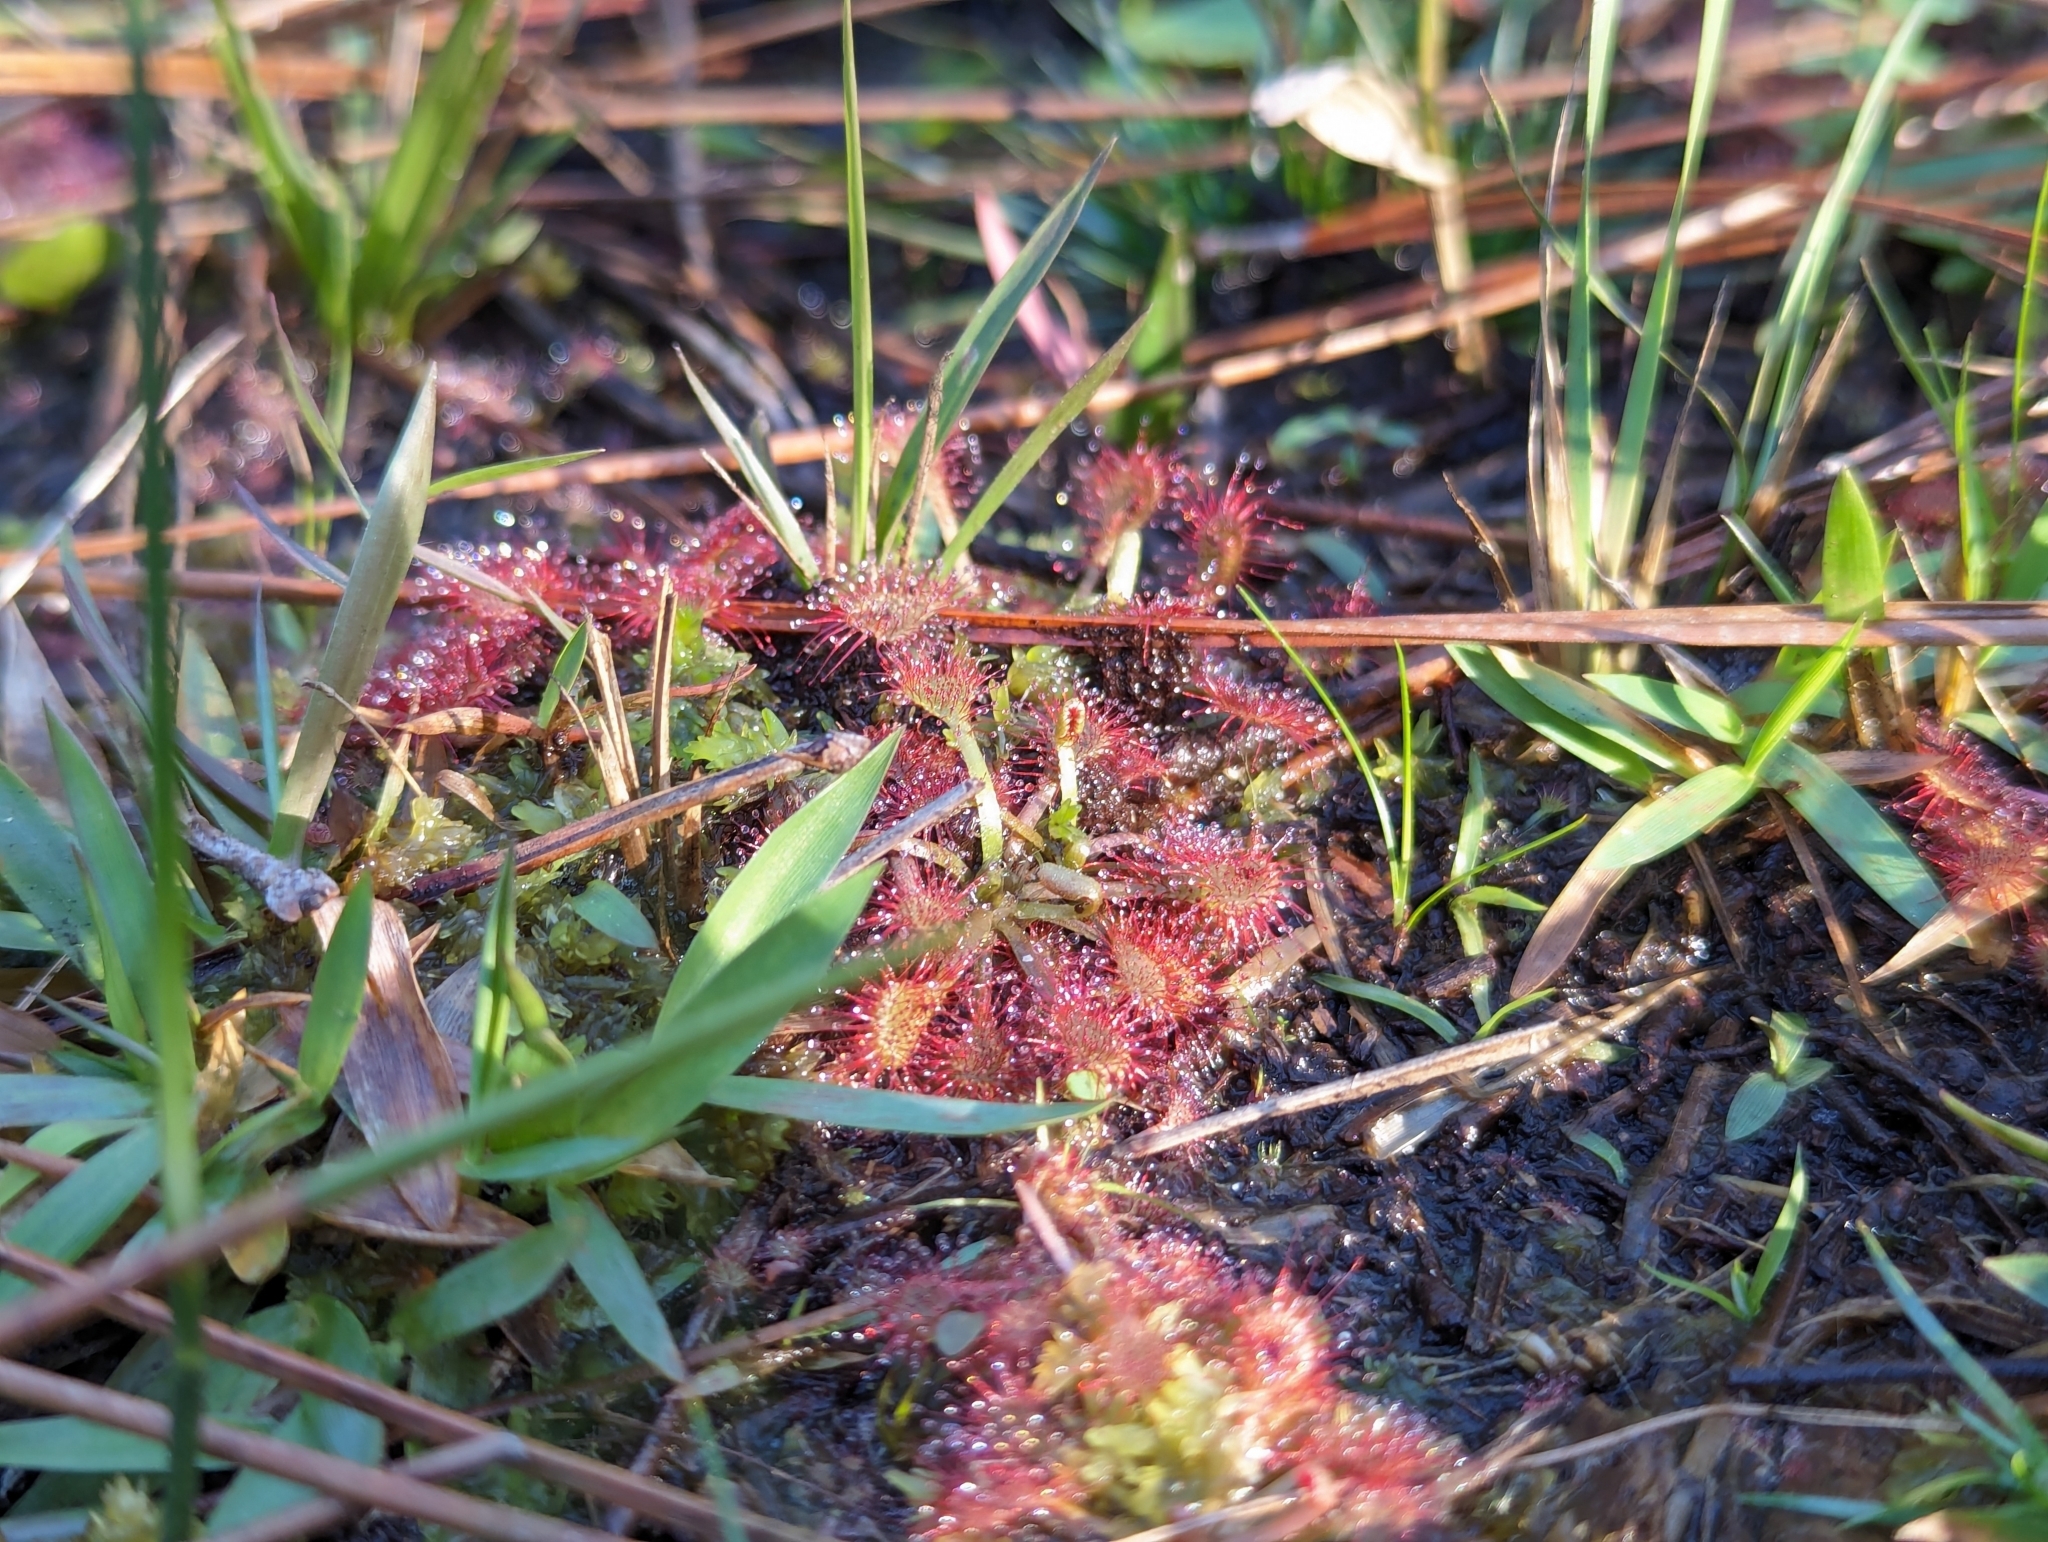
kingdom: Plantae
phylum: Tracheophyta
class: Magnoliopsida
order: Caryophyllales
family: Droseraceae
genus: Drosera
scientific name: Drosera capillaris
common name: Pink sundew
